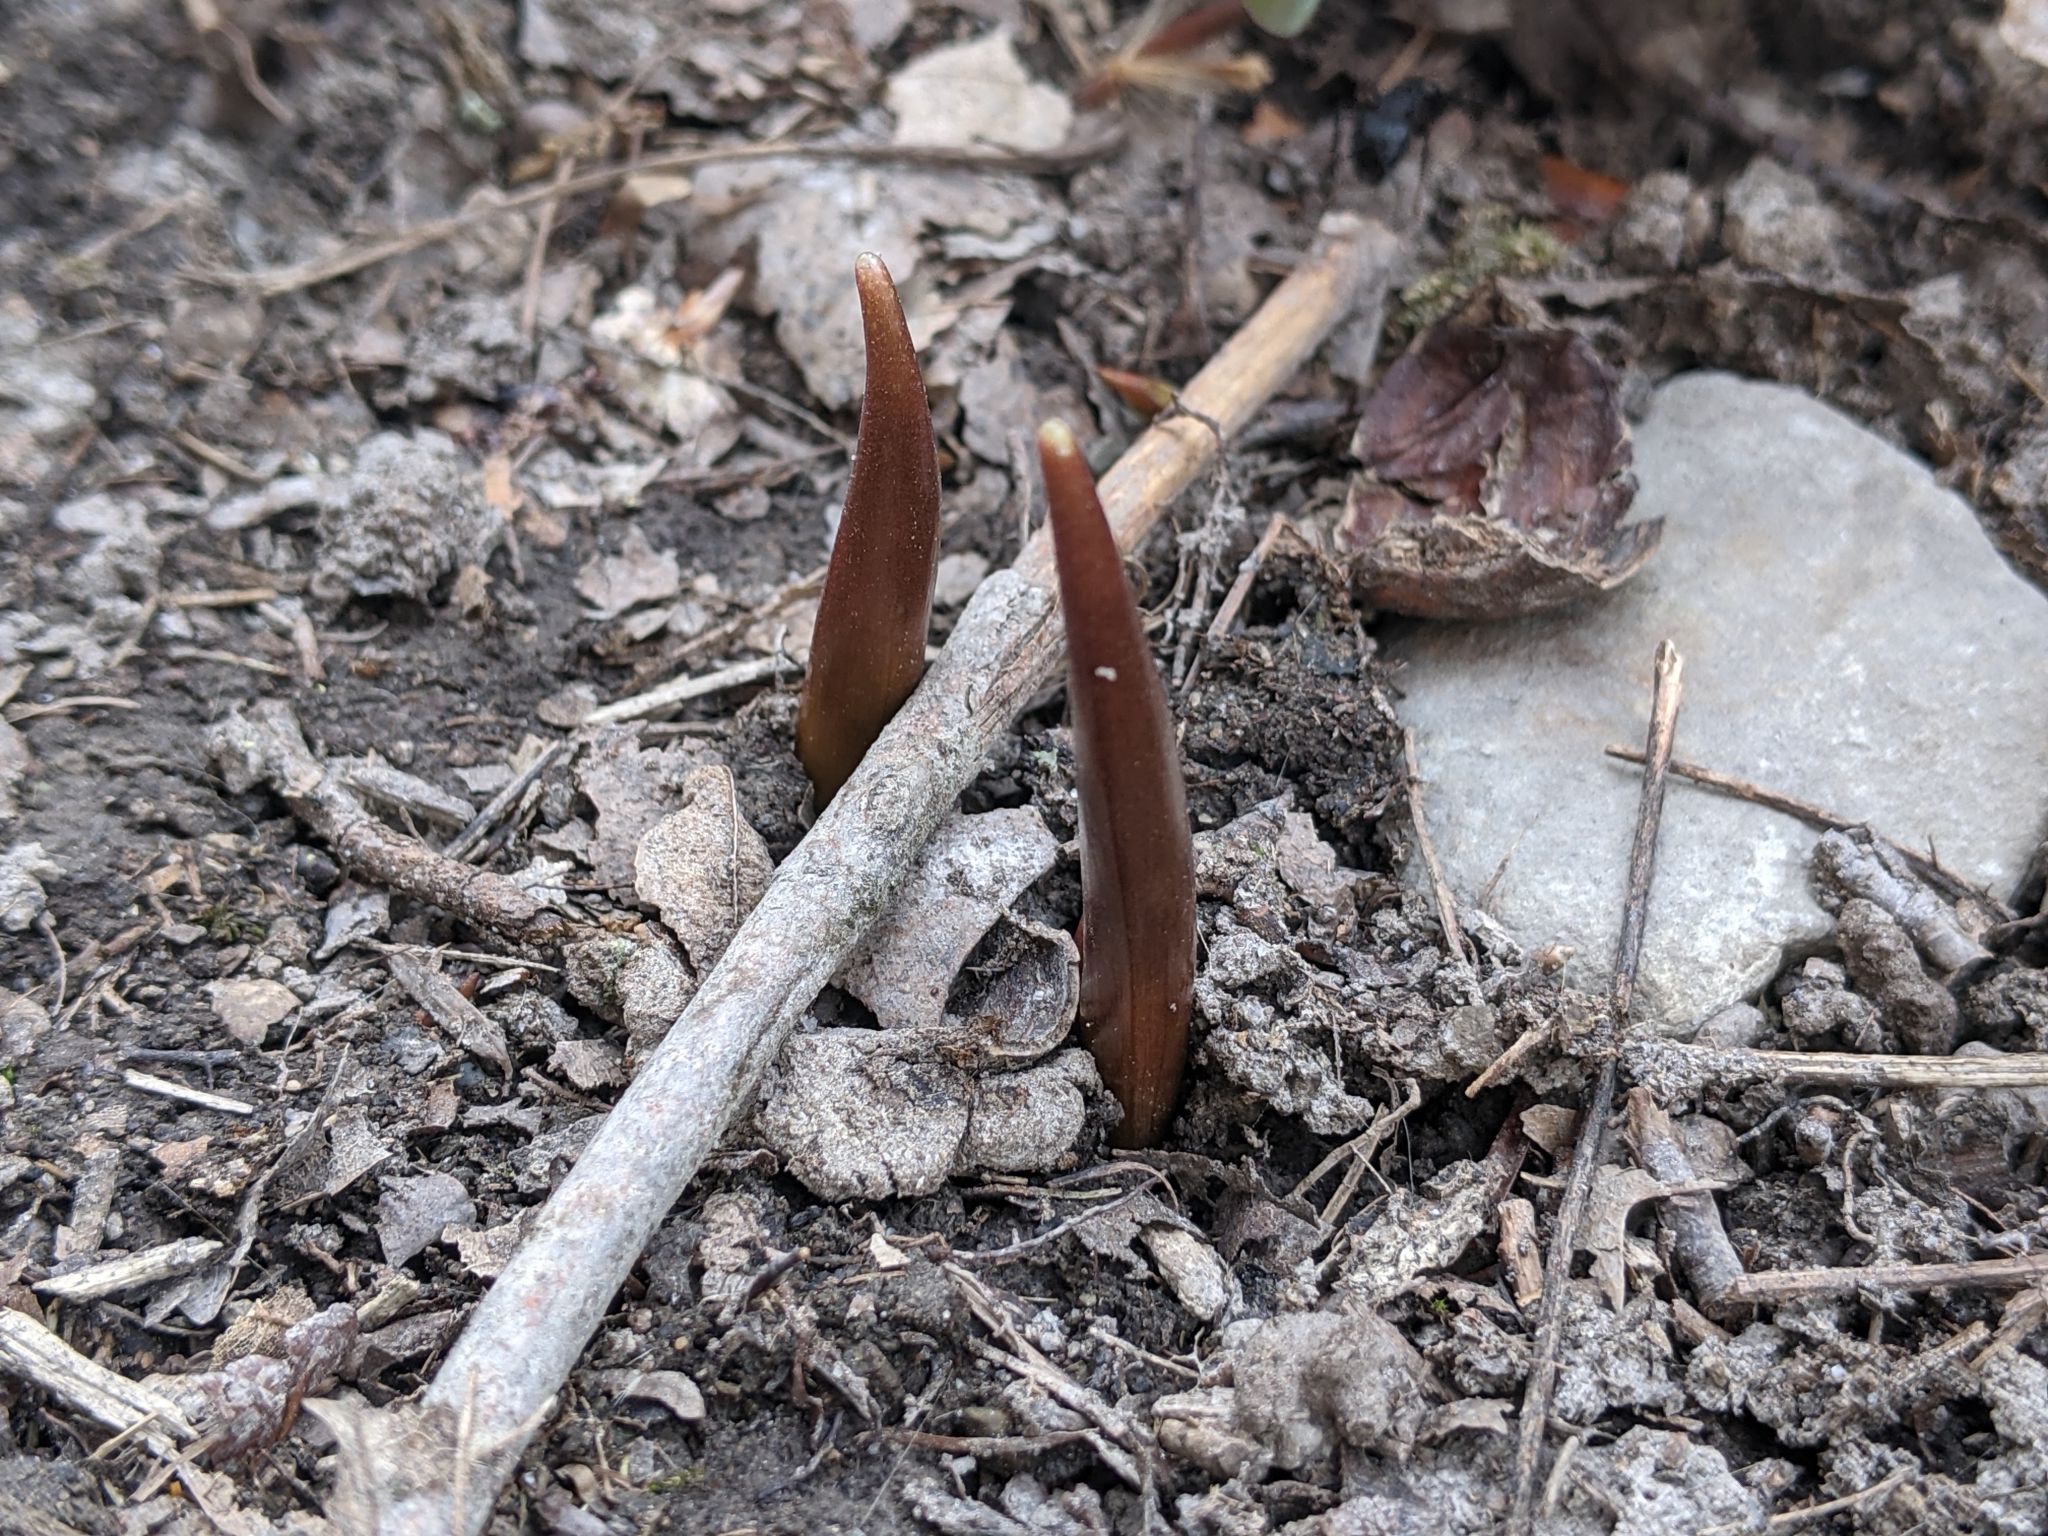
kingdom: Plantae
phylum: Tracheophyta
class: Liliopsida
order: Liliales
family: Liliaceae
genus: Erythronium
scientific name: Erythronium americanum
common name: Yellow adder's-tongue
